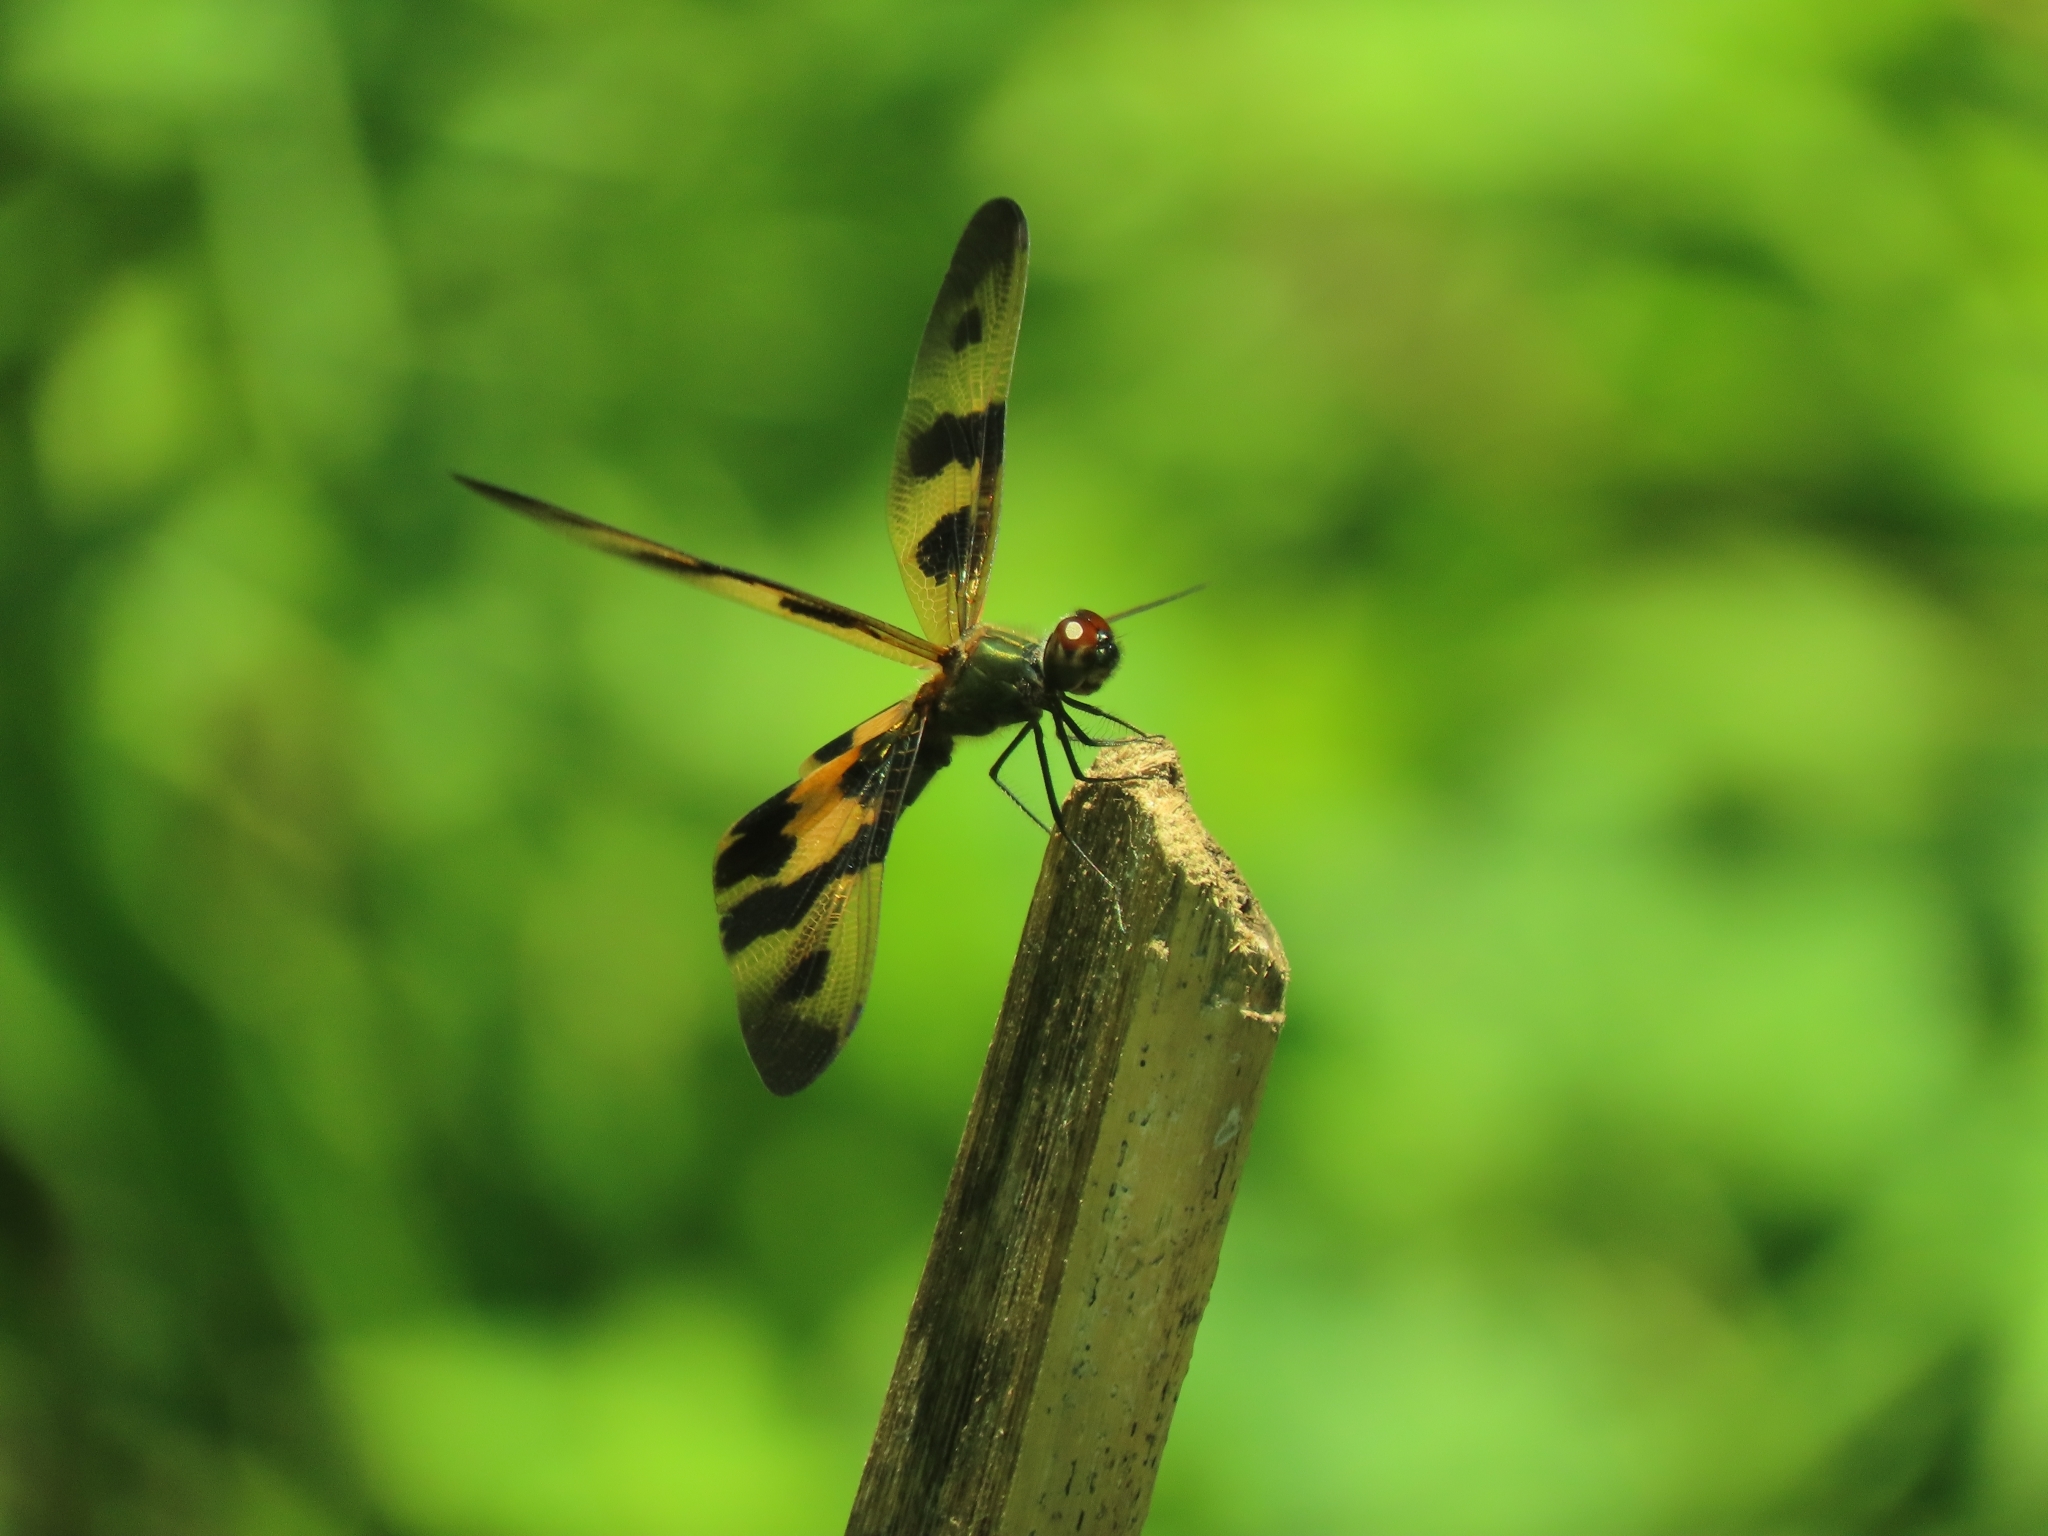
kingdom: Animalia
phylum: Arthropoda
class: Insecta
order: Odonata
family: Libellulidae
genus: Rhyothemis
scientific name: Rhyothemis variegata
